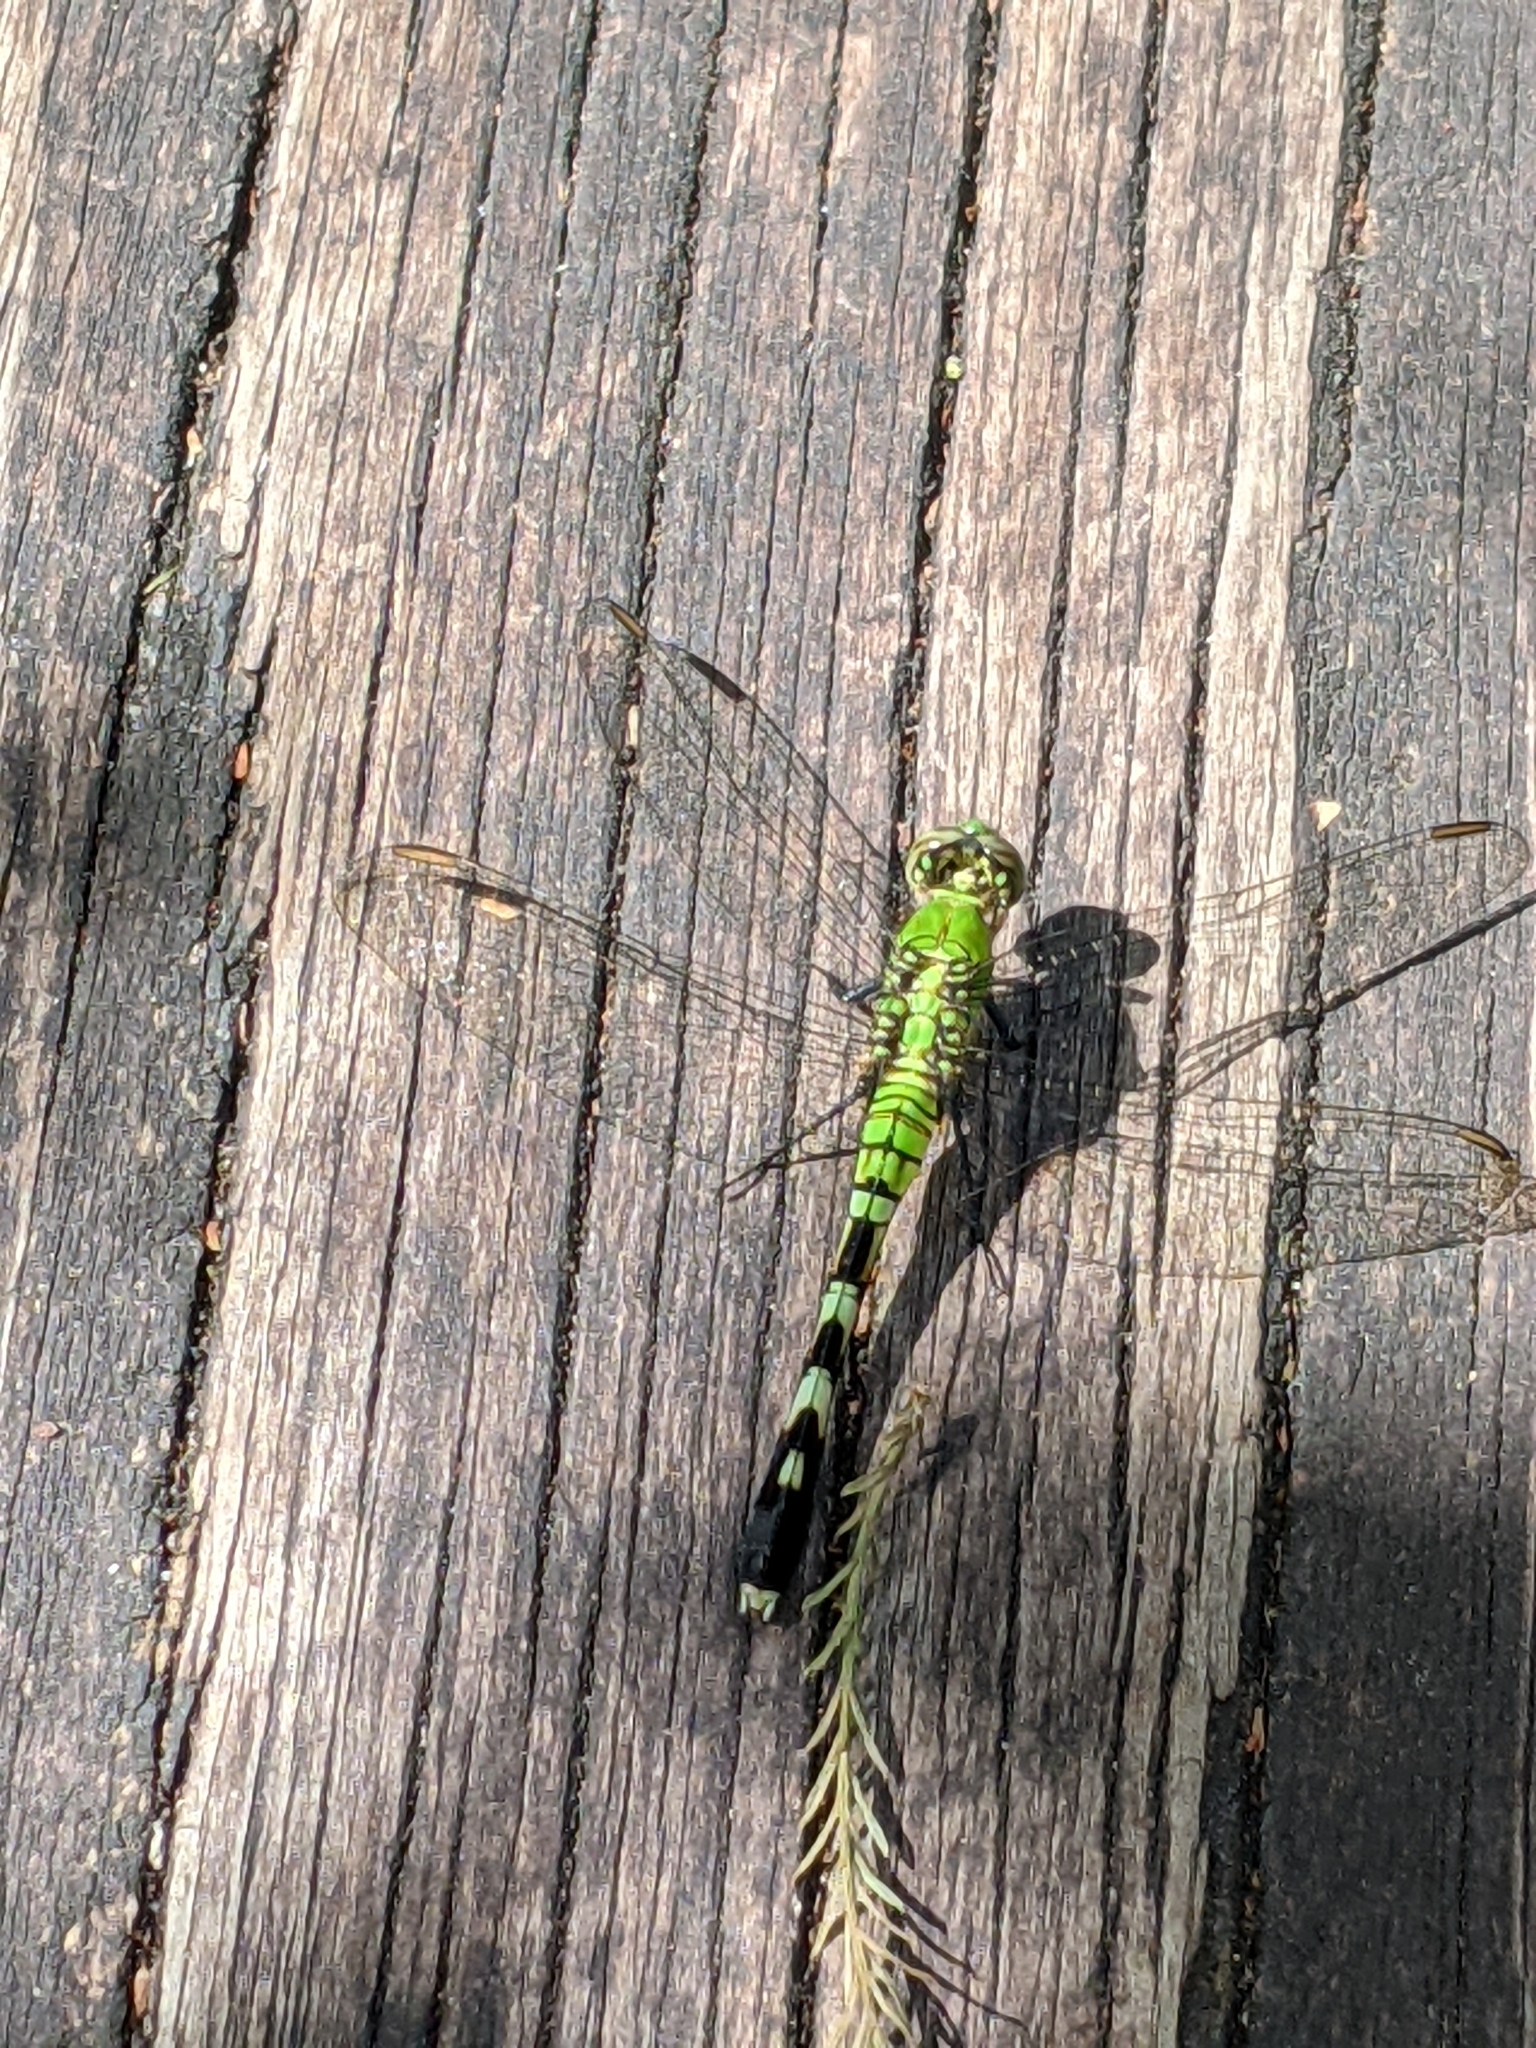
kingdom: Animalia
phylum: Arthropoda
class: Insecta
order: Odonata
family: Libellulidae
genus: Erythemis
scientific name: Erythemis simplicicollis
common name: Eastern pondhawk
